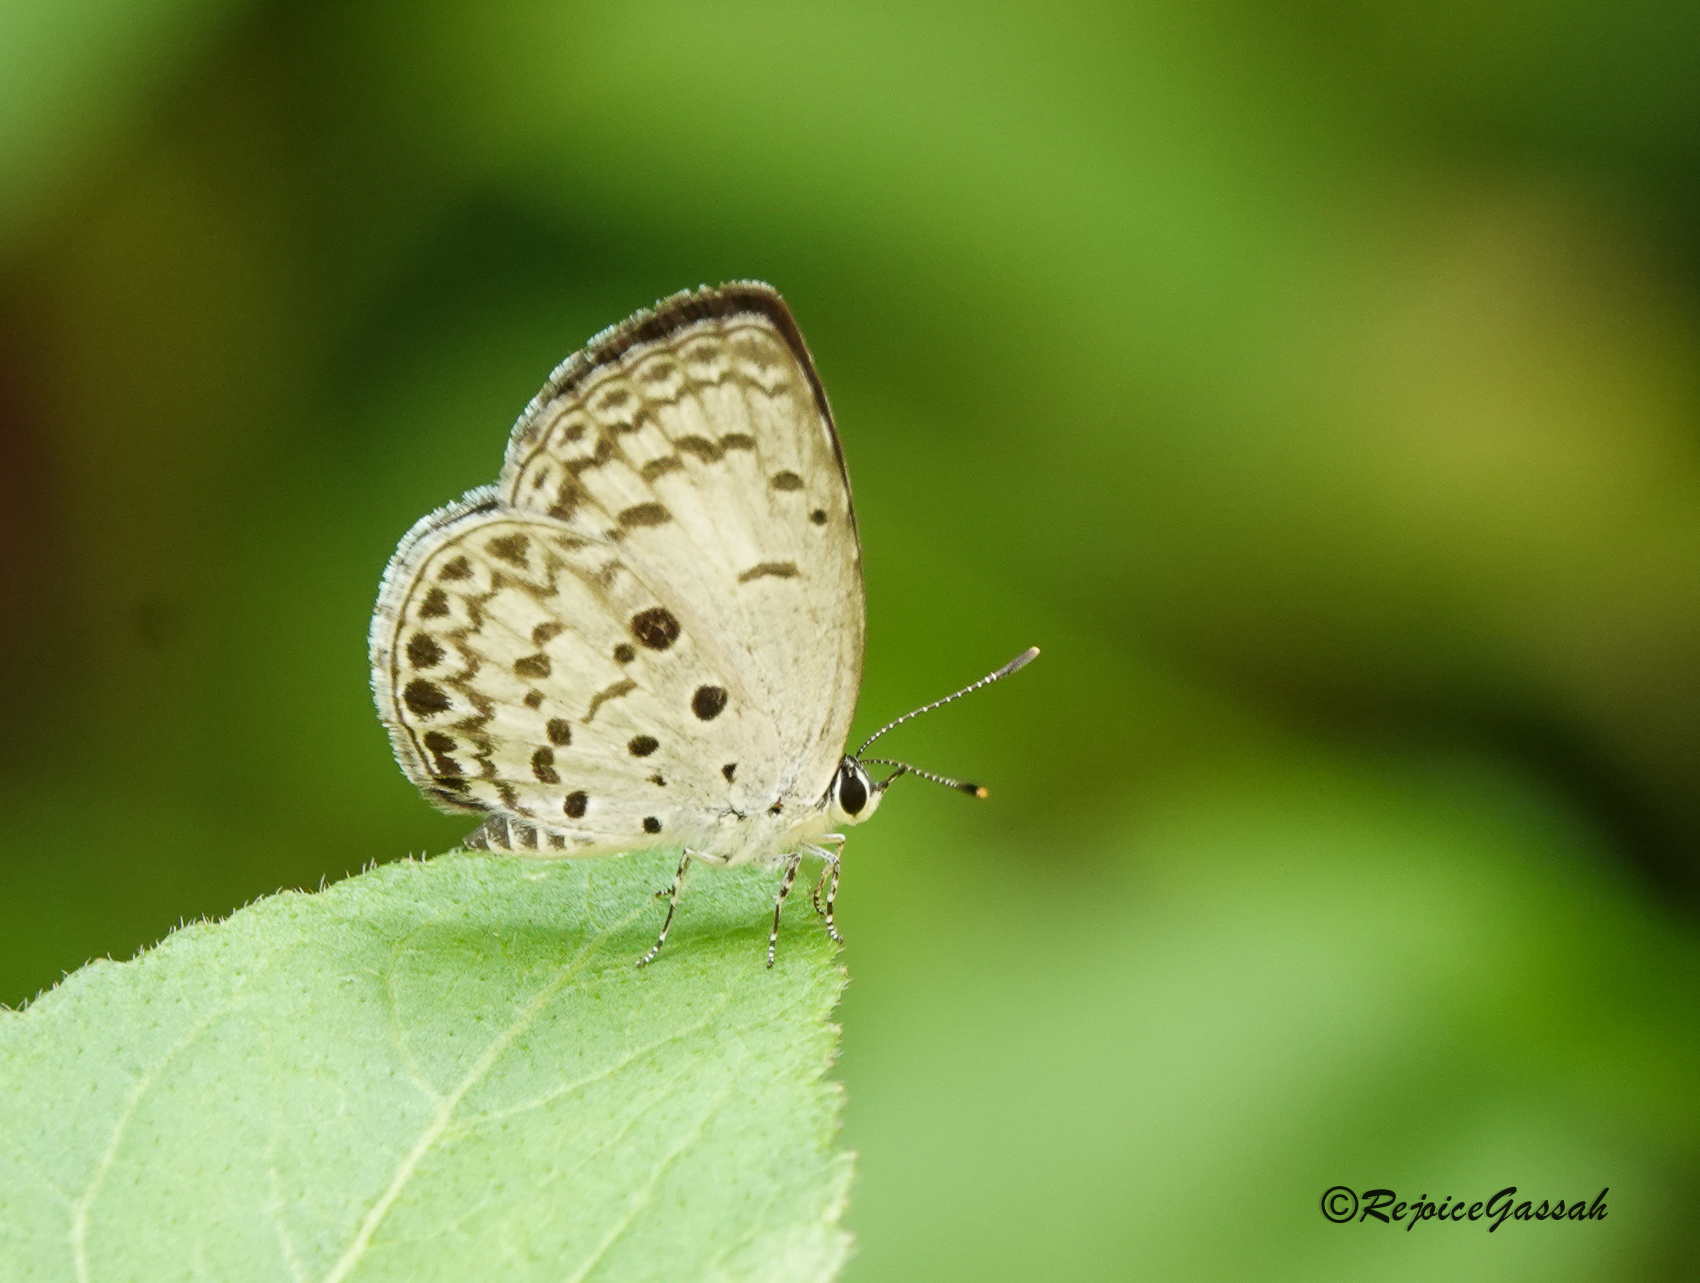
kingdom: Animalia
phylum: Arthropoda
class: Insecta
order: Lepidoptera
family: Lycaenidae
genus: Megisba
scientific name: Megisba malaya
